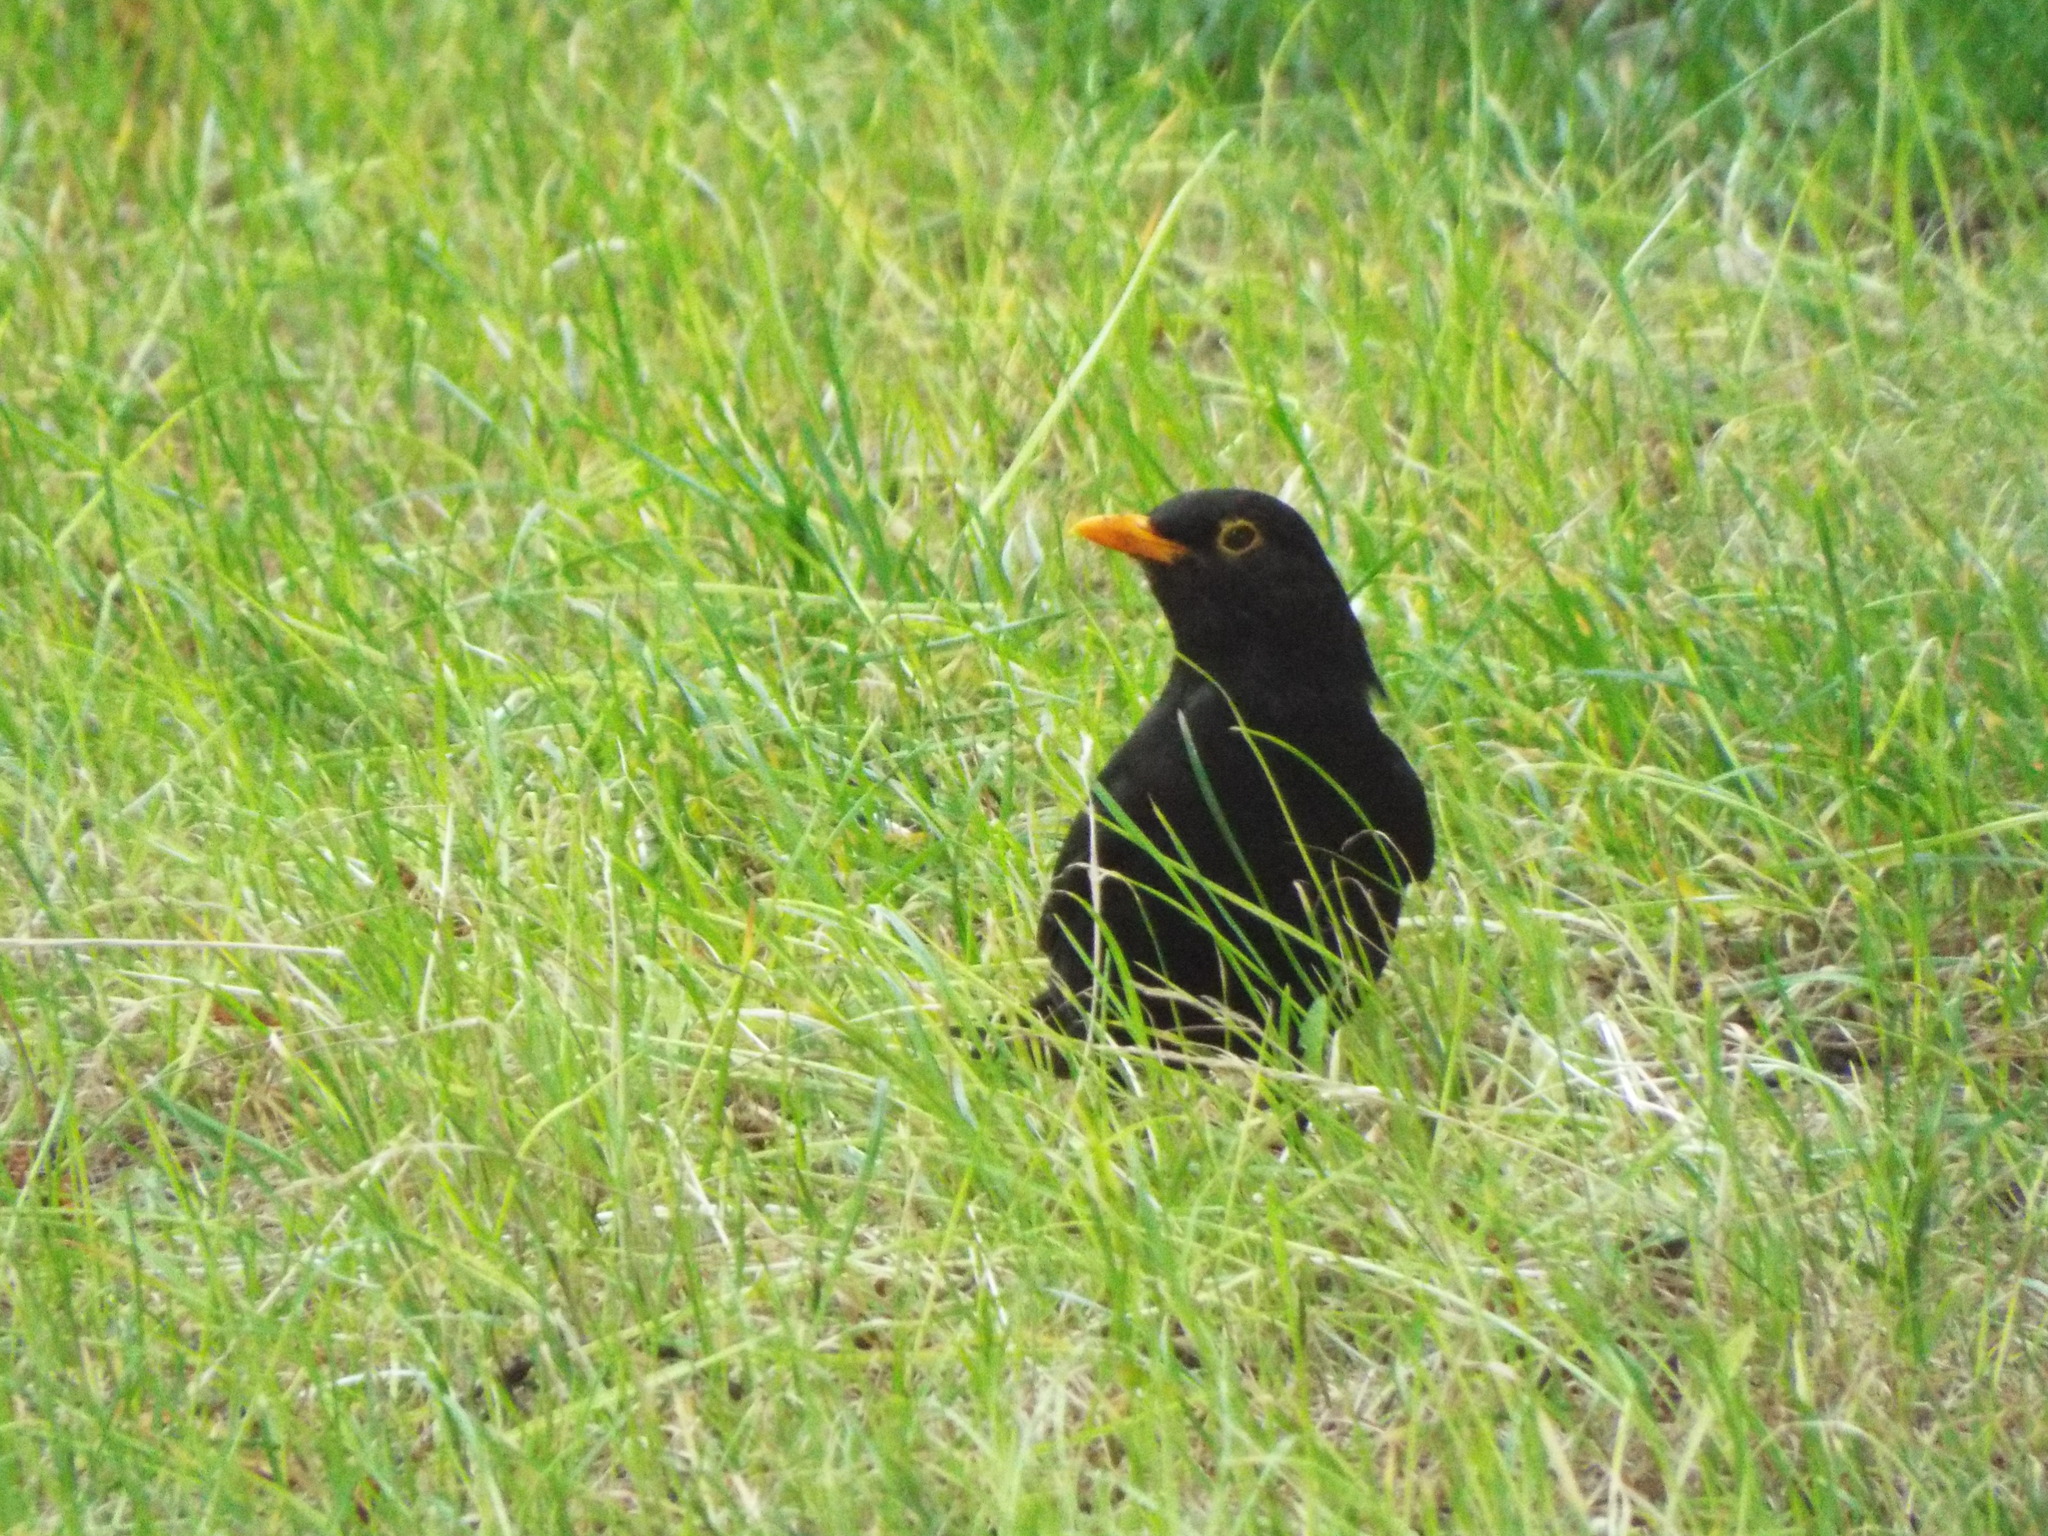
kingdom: Animalia
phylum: Chordata
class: Aves
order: Passeriformes
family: Turdidae
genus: Turdus
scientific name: Turdus merula
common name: Common blackbird
